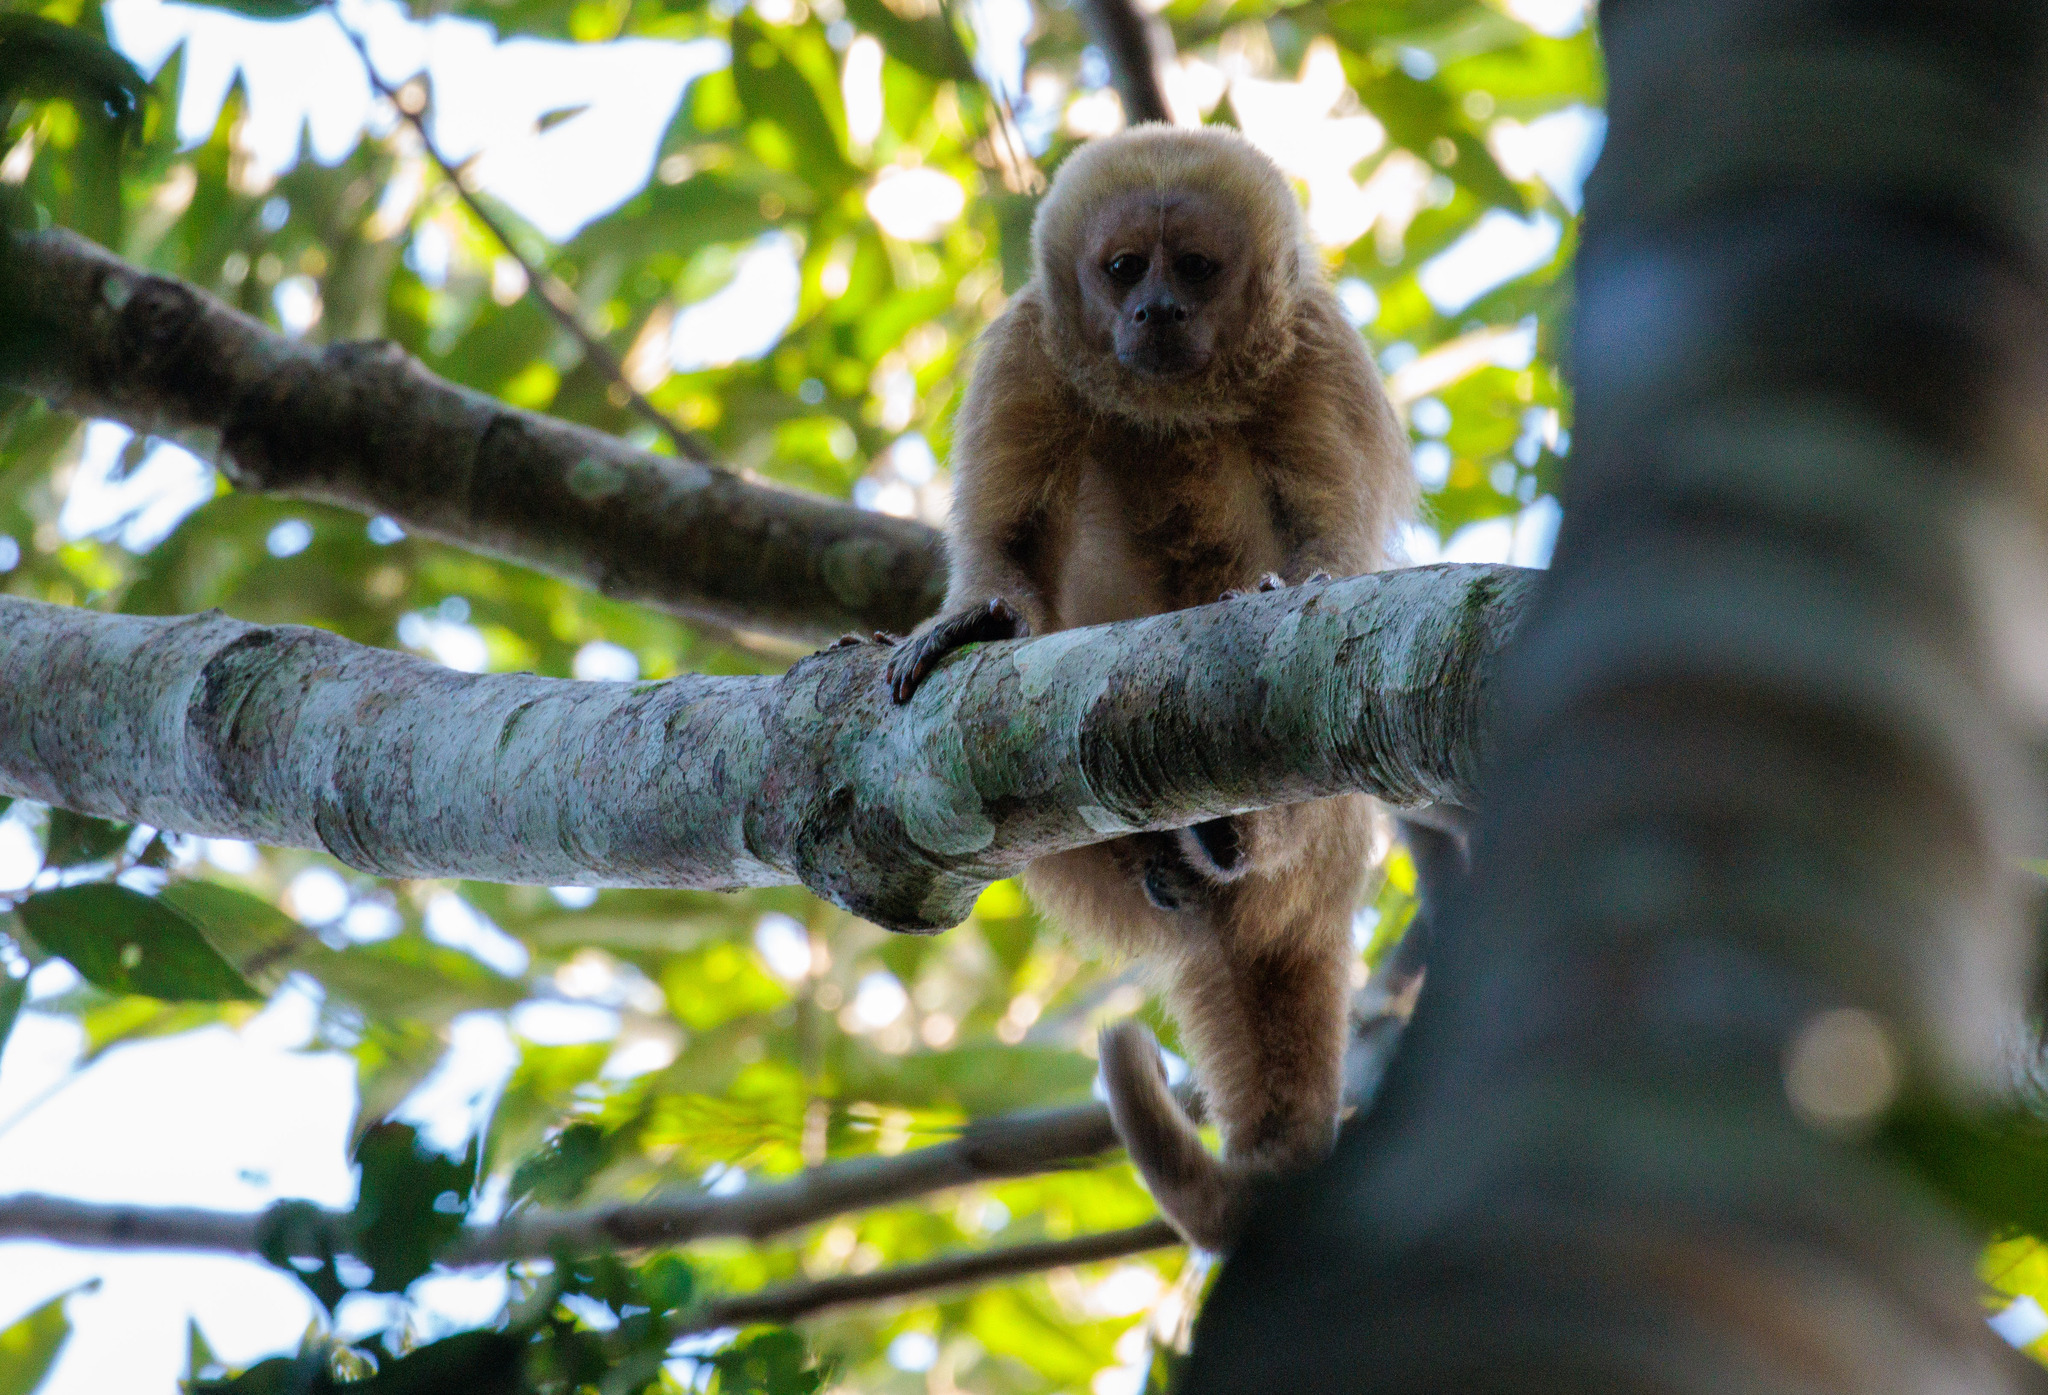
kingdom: Animalia
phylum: Chordata
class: Mammalia
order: Primates
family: Cebidae
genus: Sapajus
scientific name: Sapajus flavius
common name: Blond capuchin
